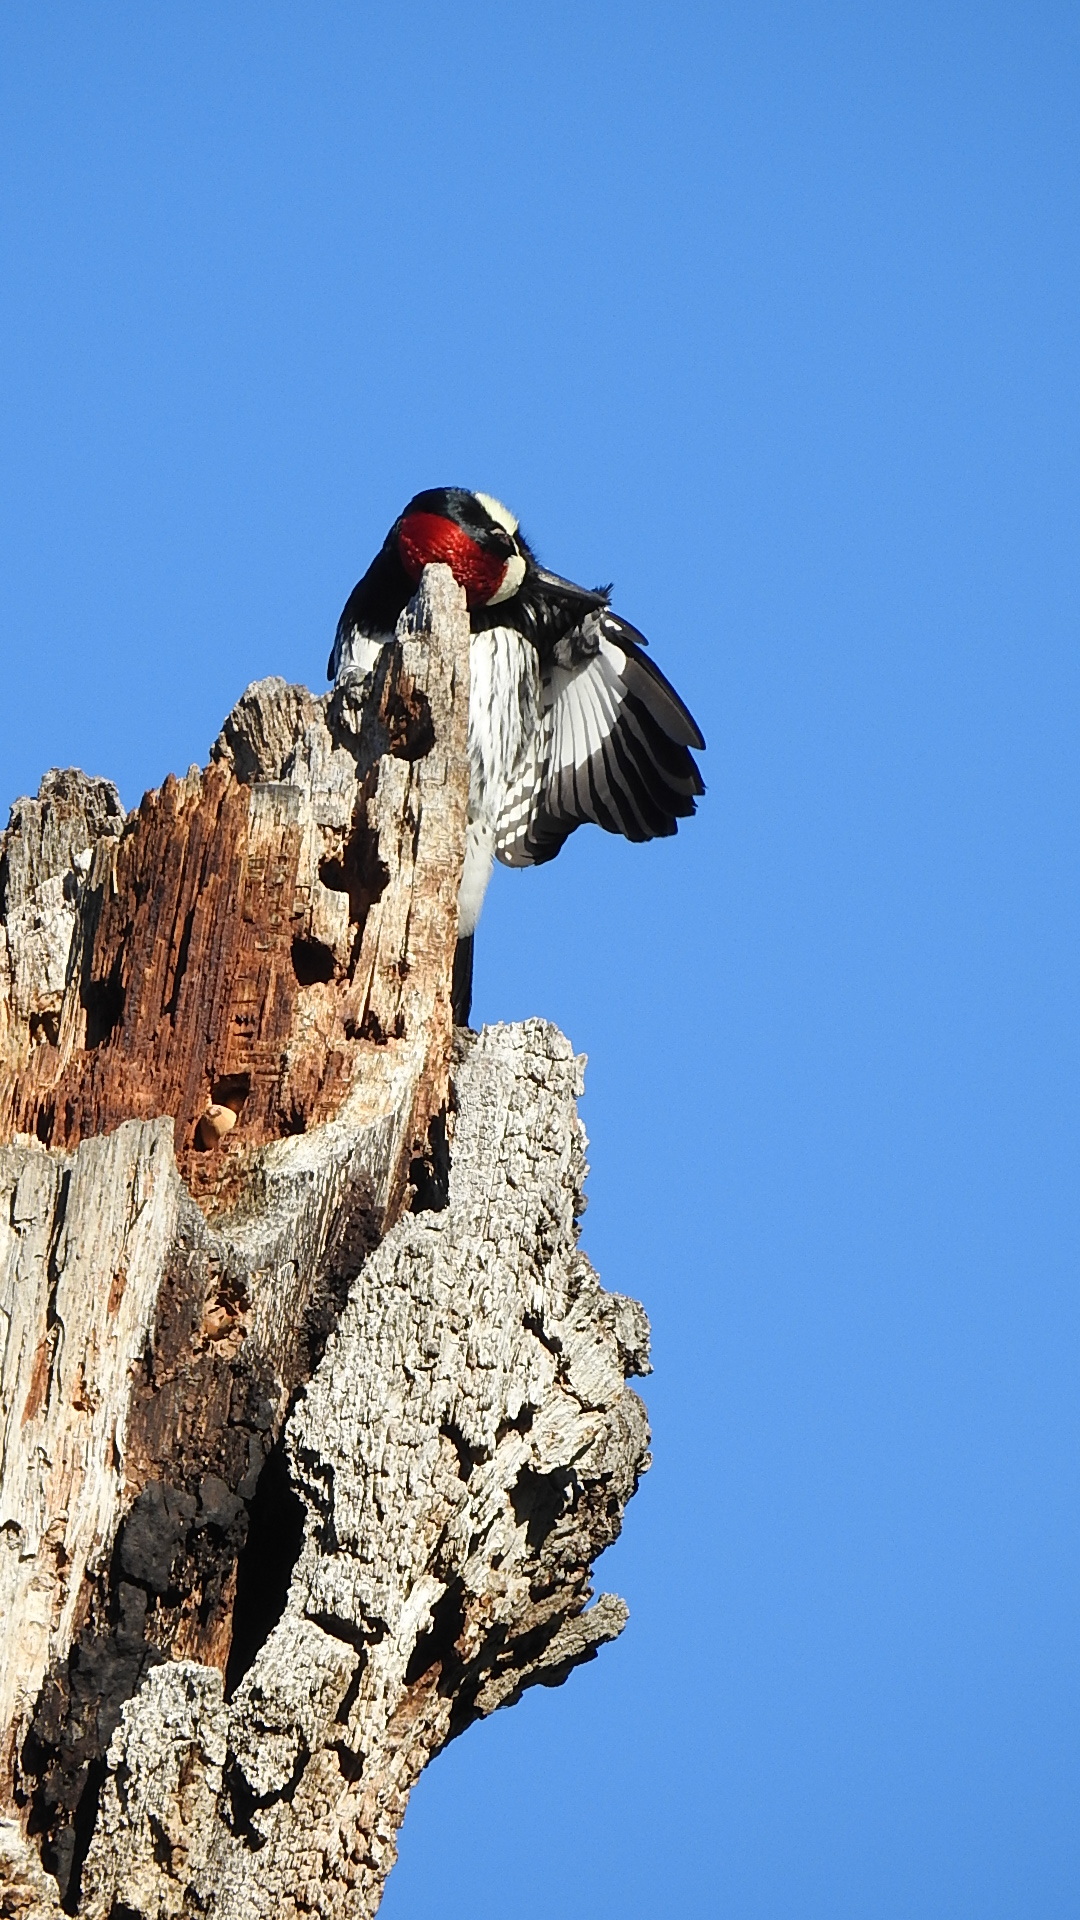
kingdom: Animalia
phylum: Chordata
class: Aves
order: Piciformes
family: Picidae
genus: Melanerpes
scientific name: Melanerpes formicivorus
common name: Acorn woodpecker
